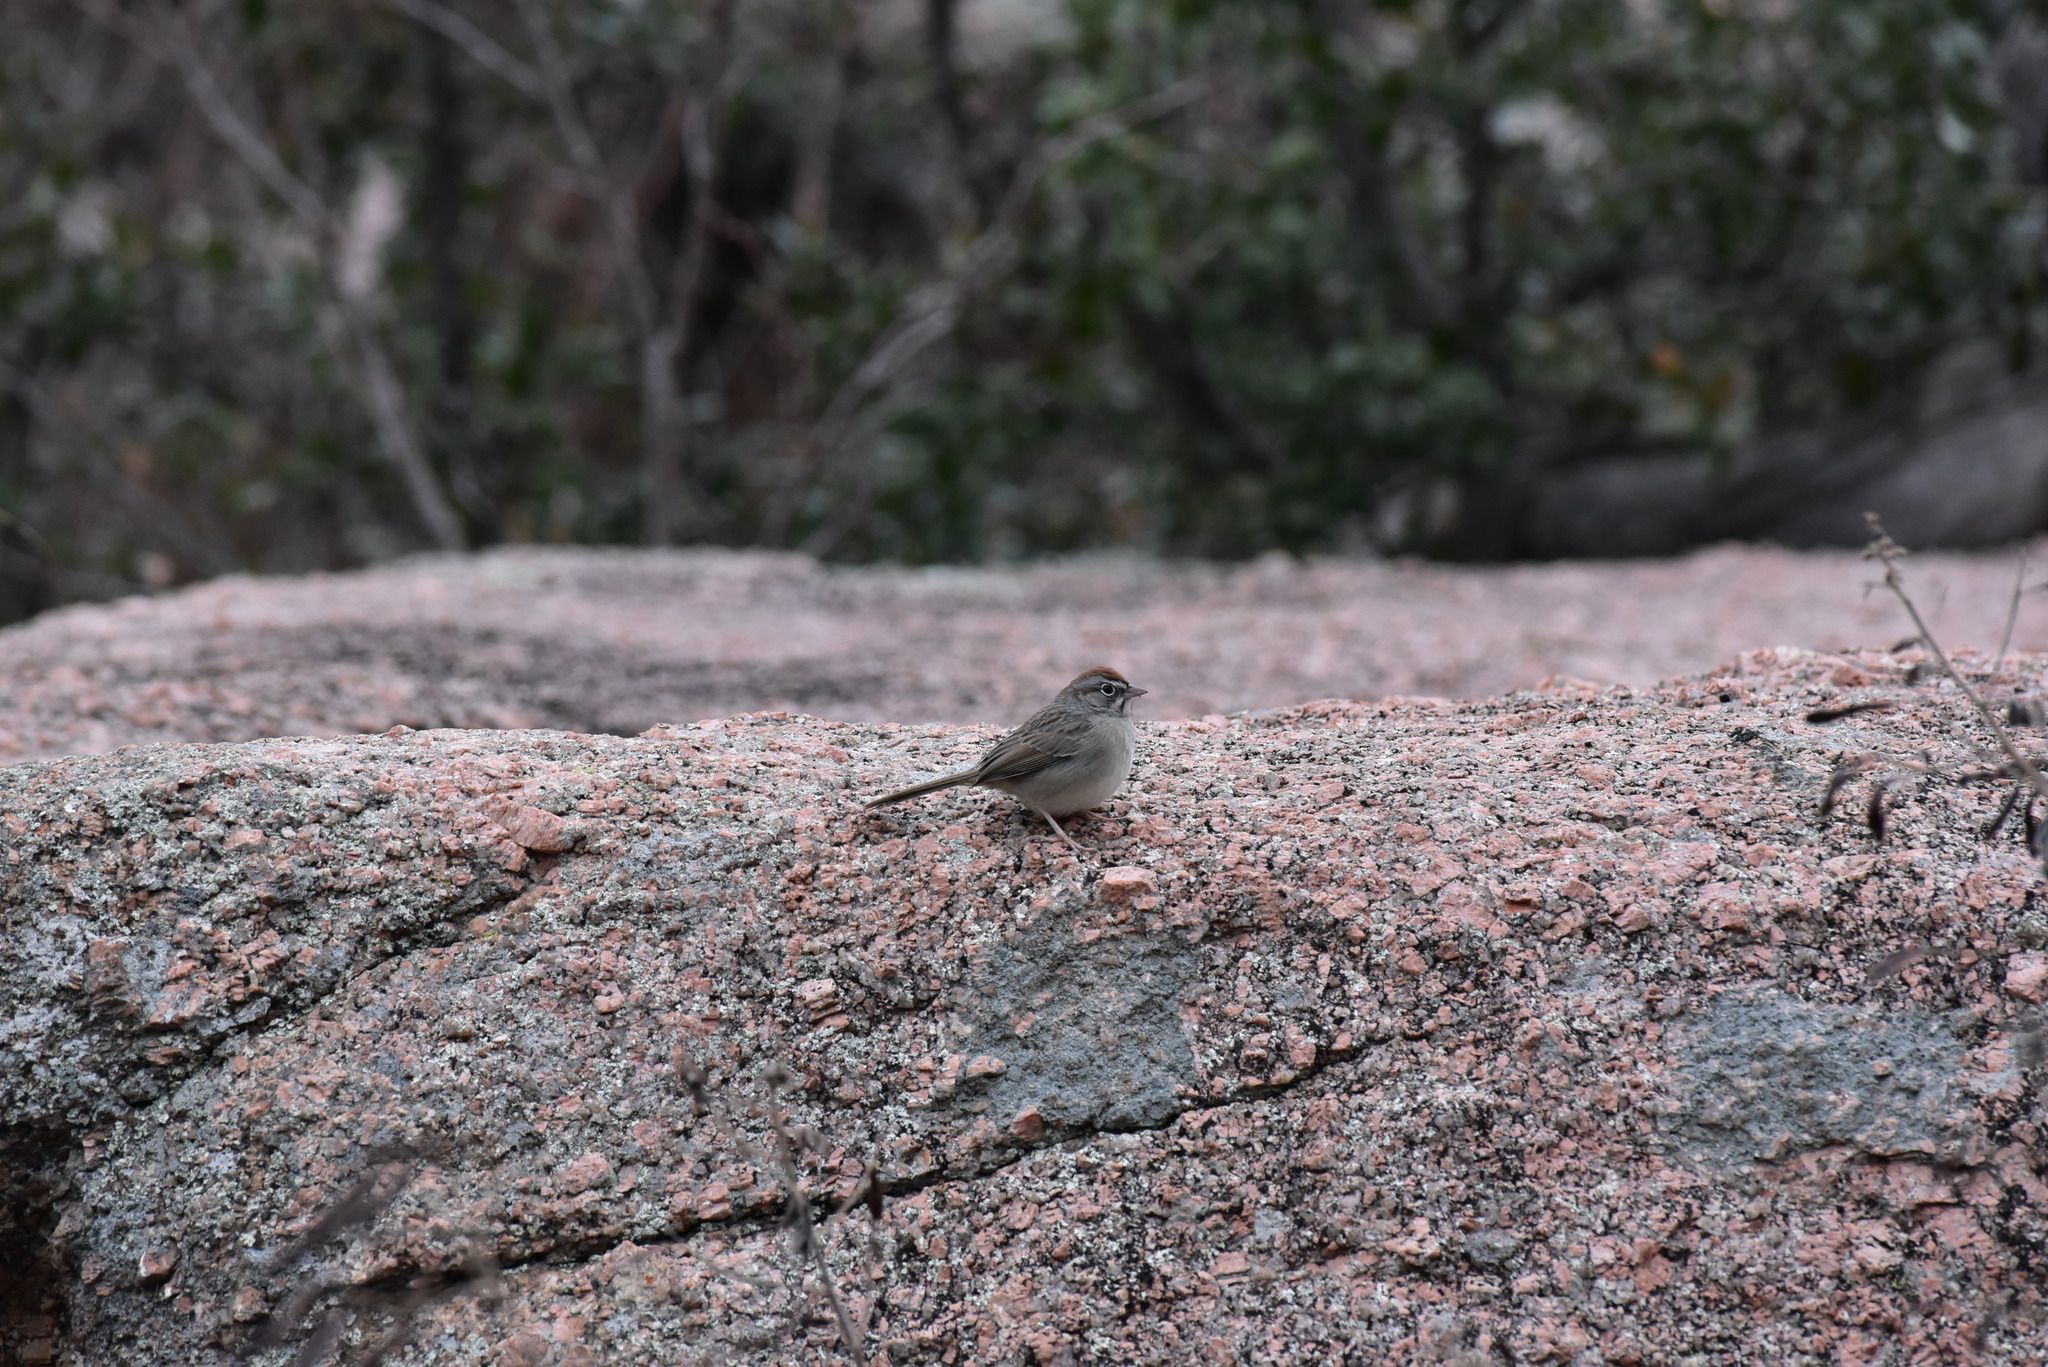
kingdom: Animalia
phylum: Chordata
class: Aves
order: Passeriformes
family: Passerellidae
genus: Aimophila
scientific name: Aimophila ruficeps
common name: Rufous-crowned sparrow
